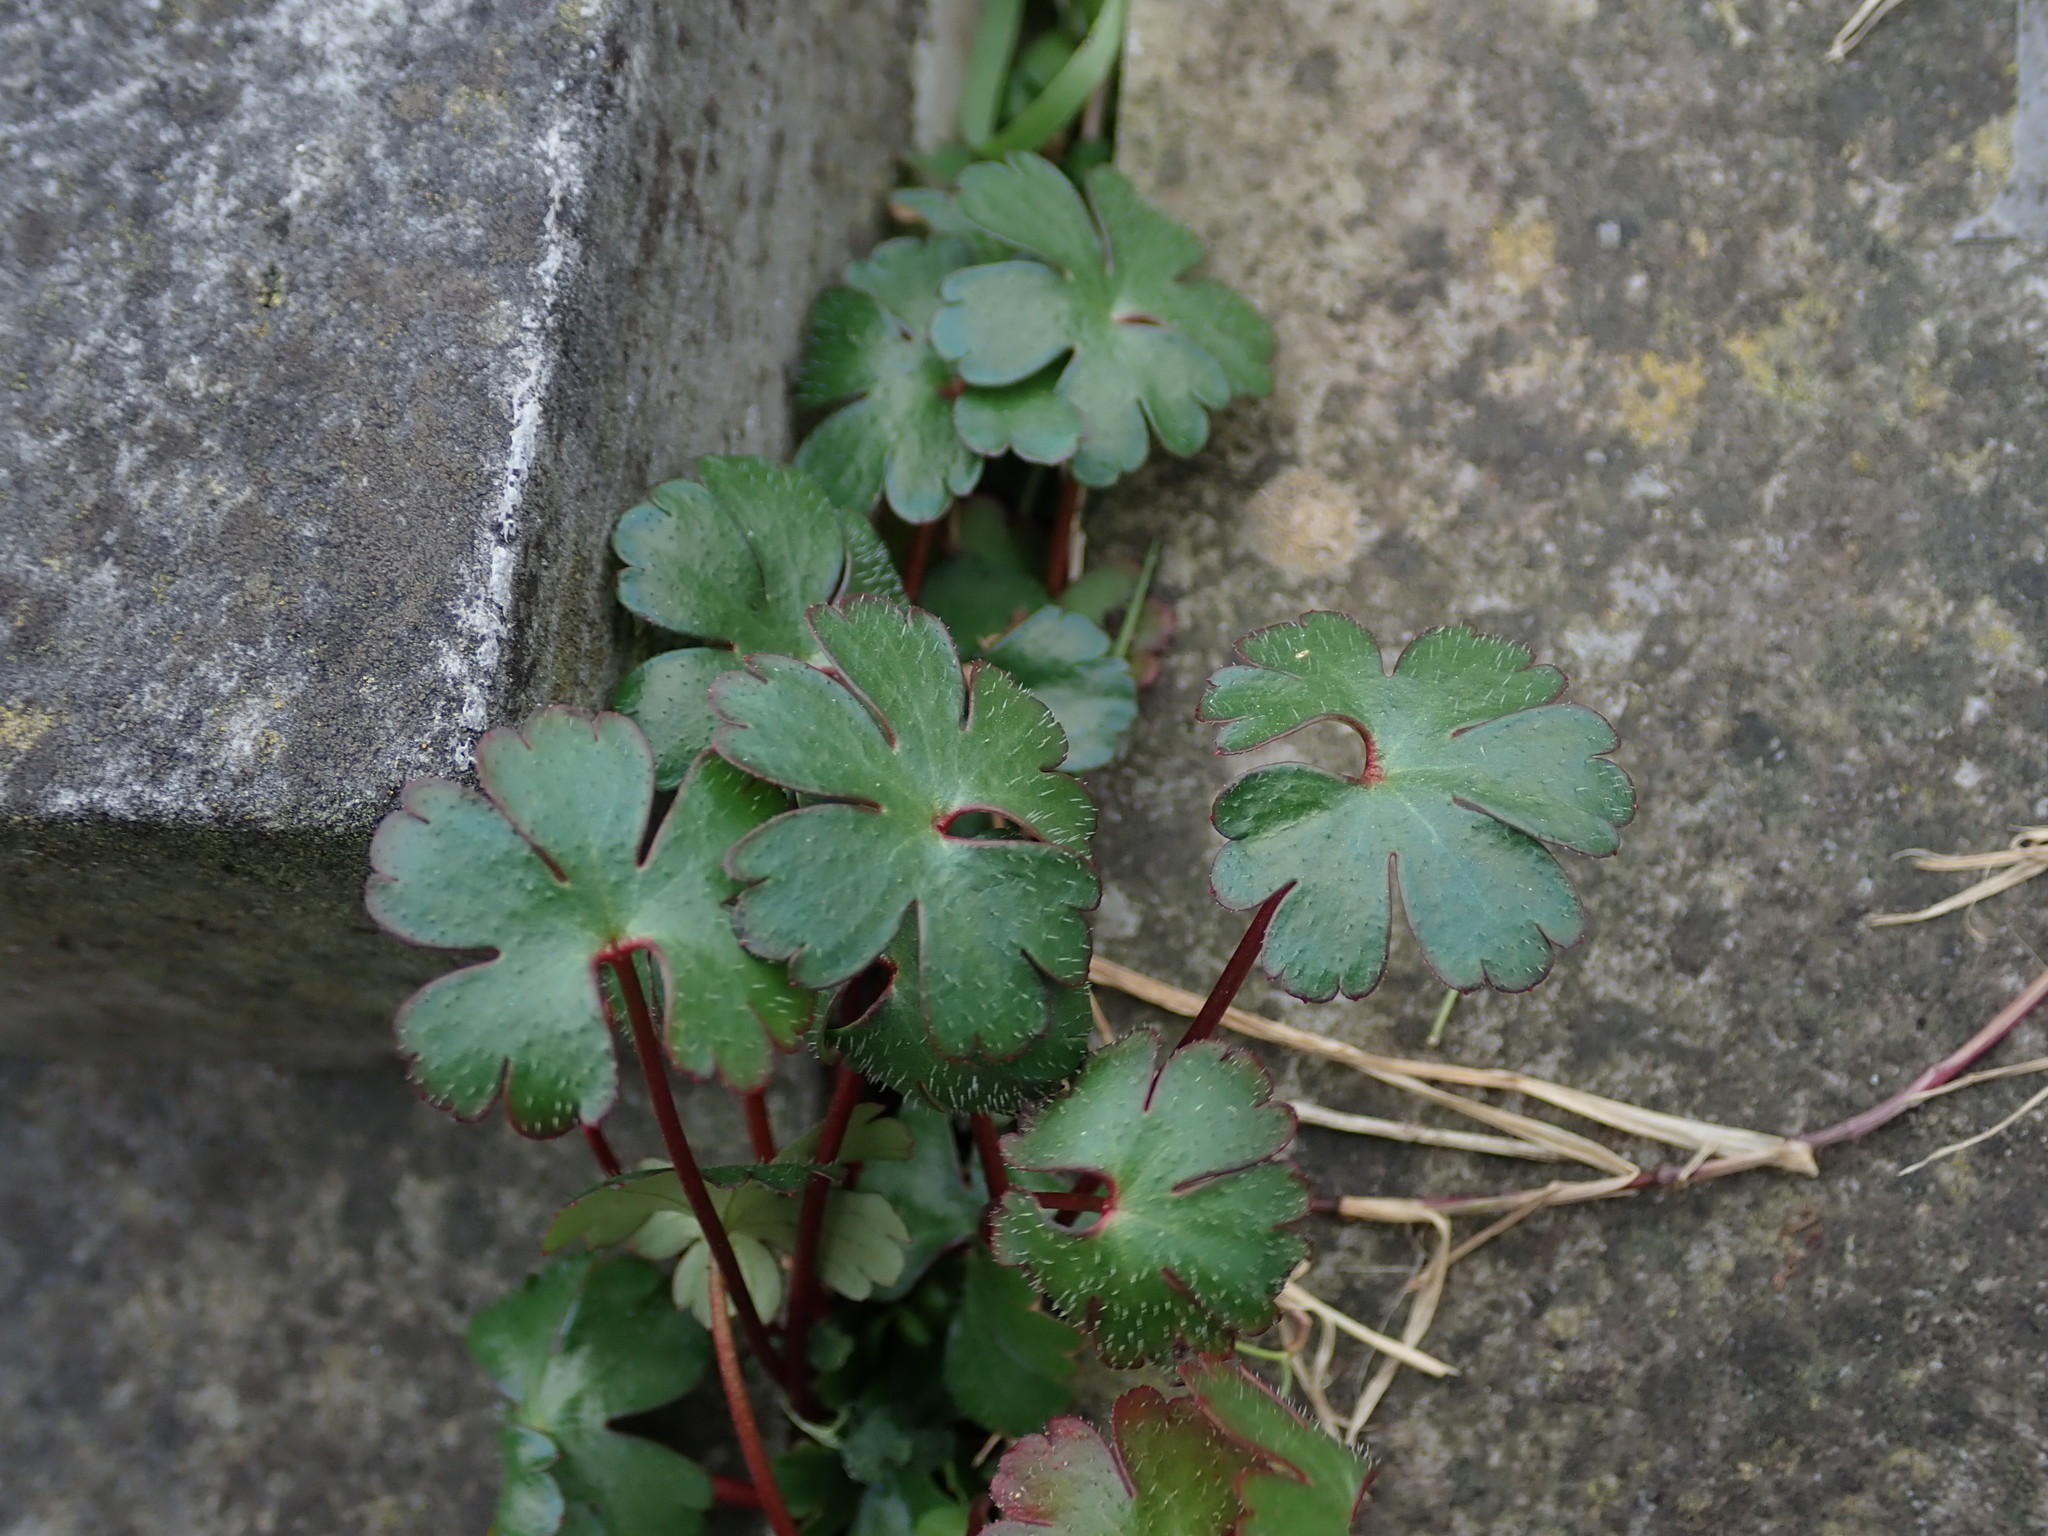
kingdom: Plantae
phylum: Tracheophyta
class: Magnoliopsida
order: Geraniales
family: Geraniaceae
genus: Geranium
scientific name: Geranium lucidum
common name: Shining crane's-bill
